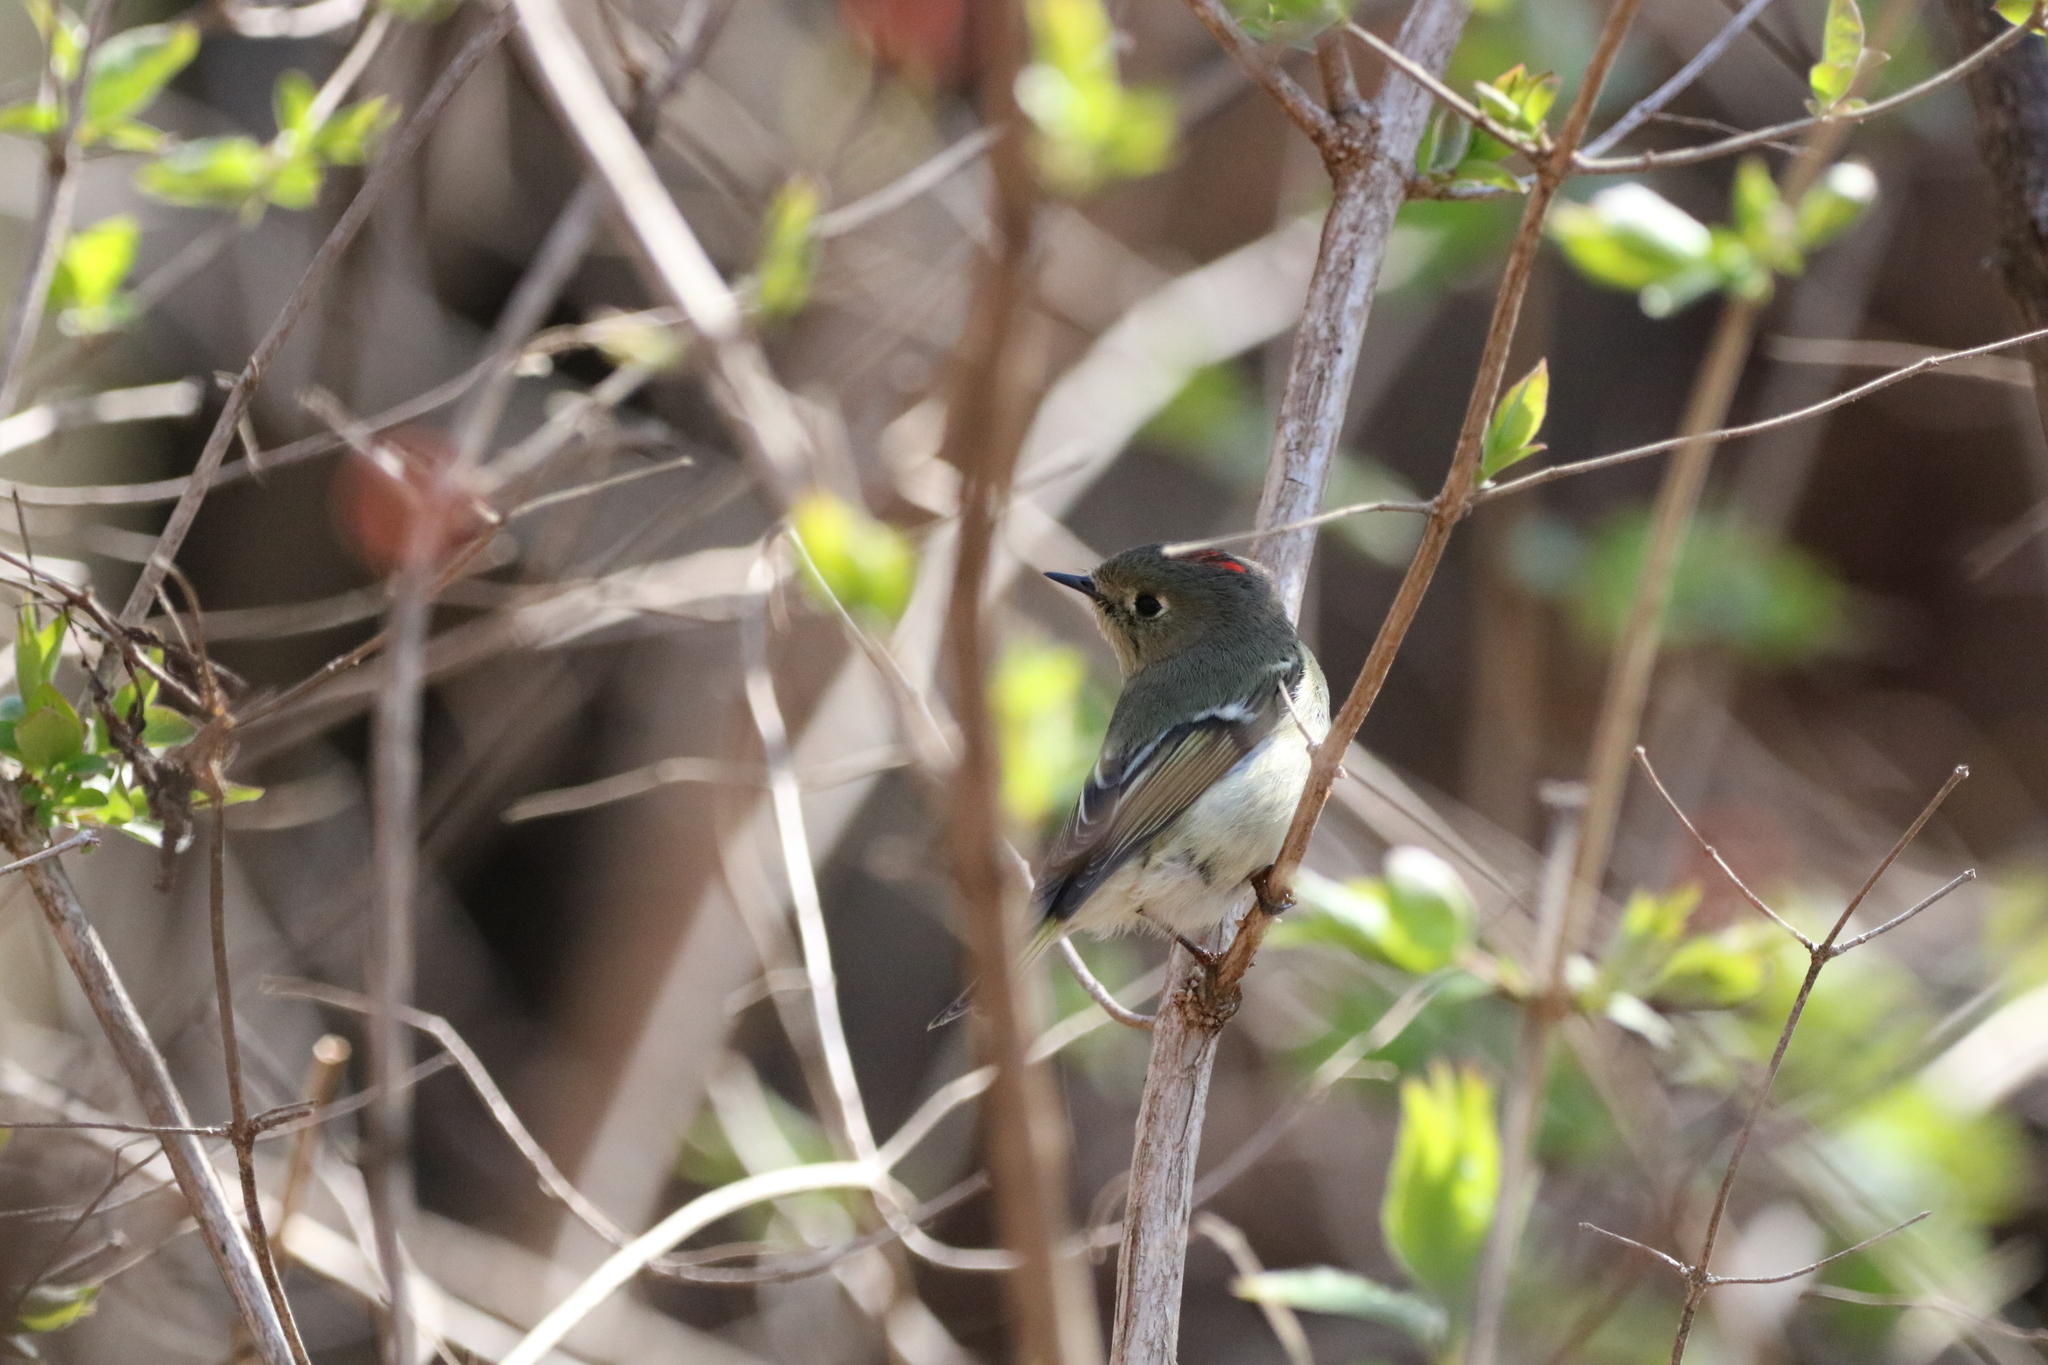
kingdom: Animalia
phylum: Chordata
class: Aves
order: Passeriformes
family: Regulidae
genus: Regulus
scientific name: Regulus calendula
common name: Ruby-crowned kinglet
